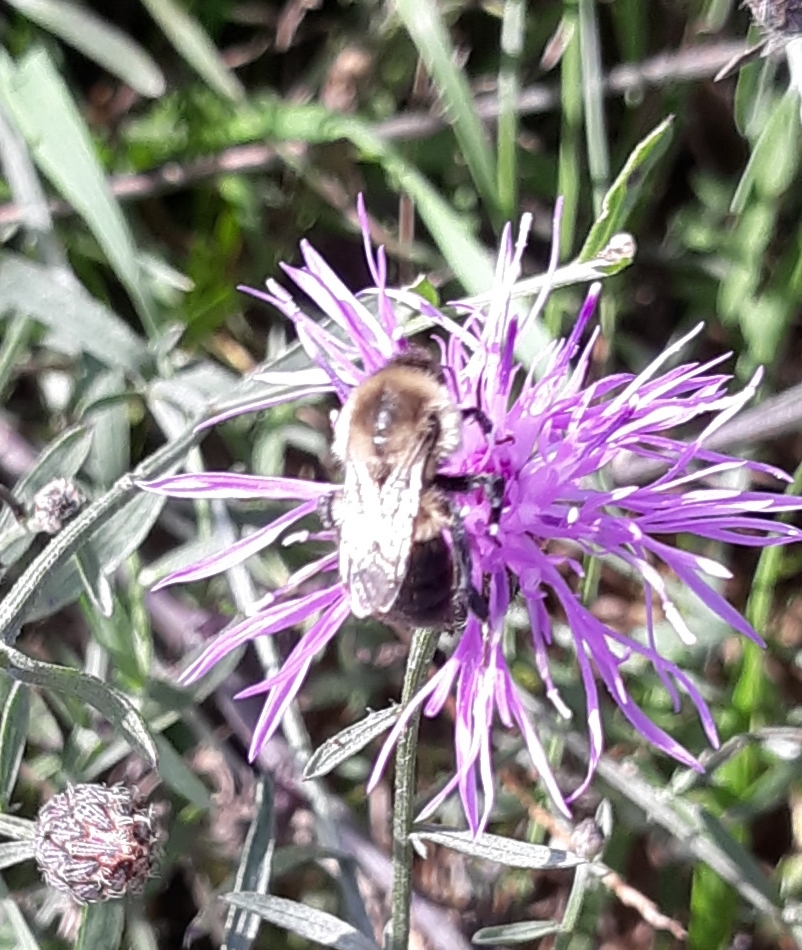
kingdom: Animalia
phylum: Arthropoda
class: Insecta
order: Hymenoptera
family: Apidae
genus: Bombus
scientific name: Bombus impatiens
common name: Common eastern bumble bee
